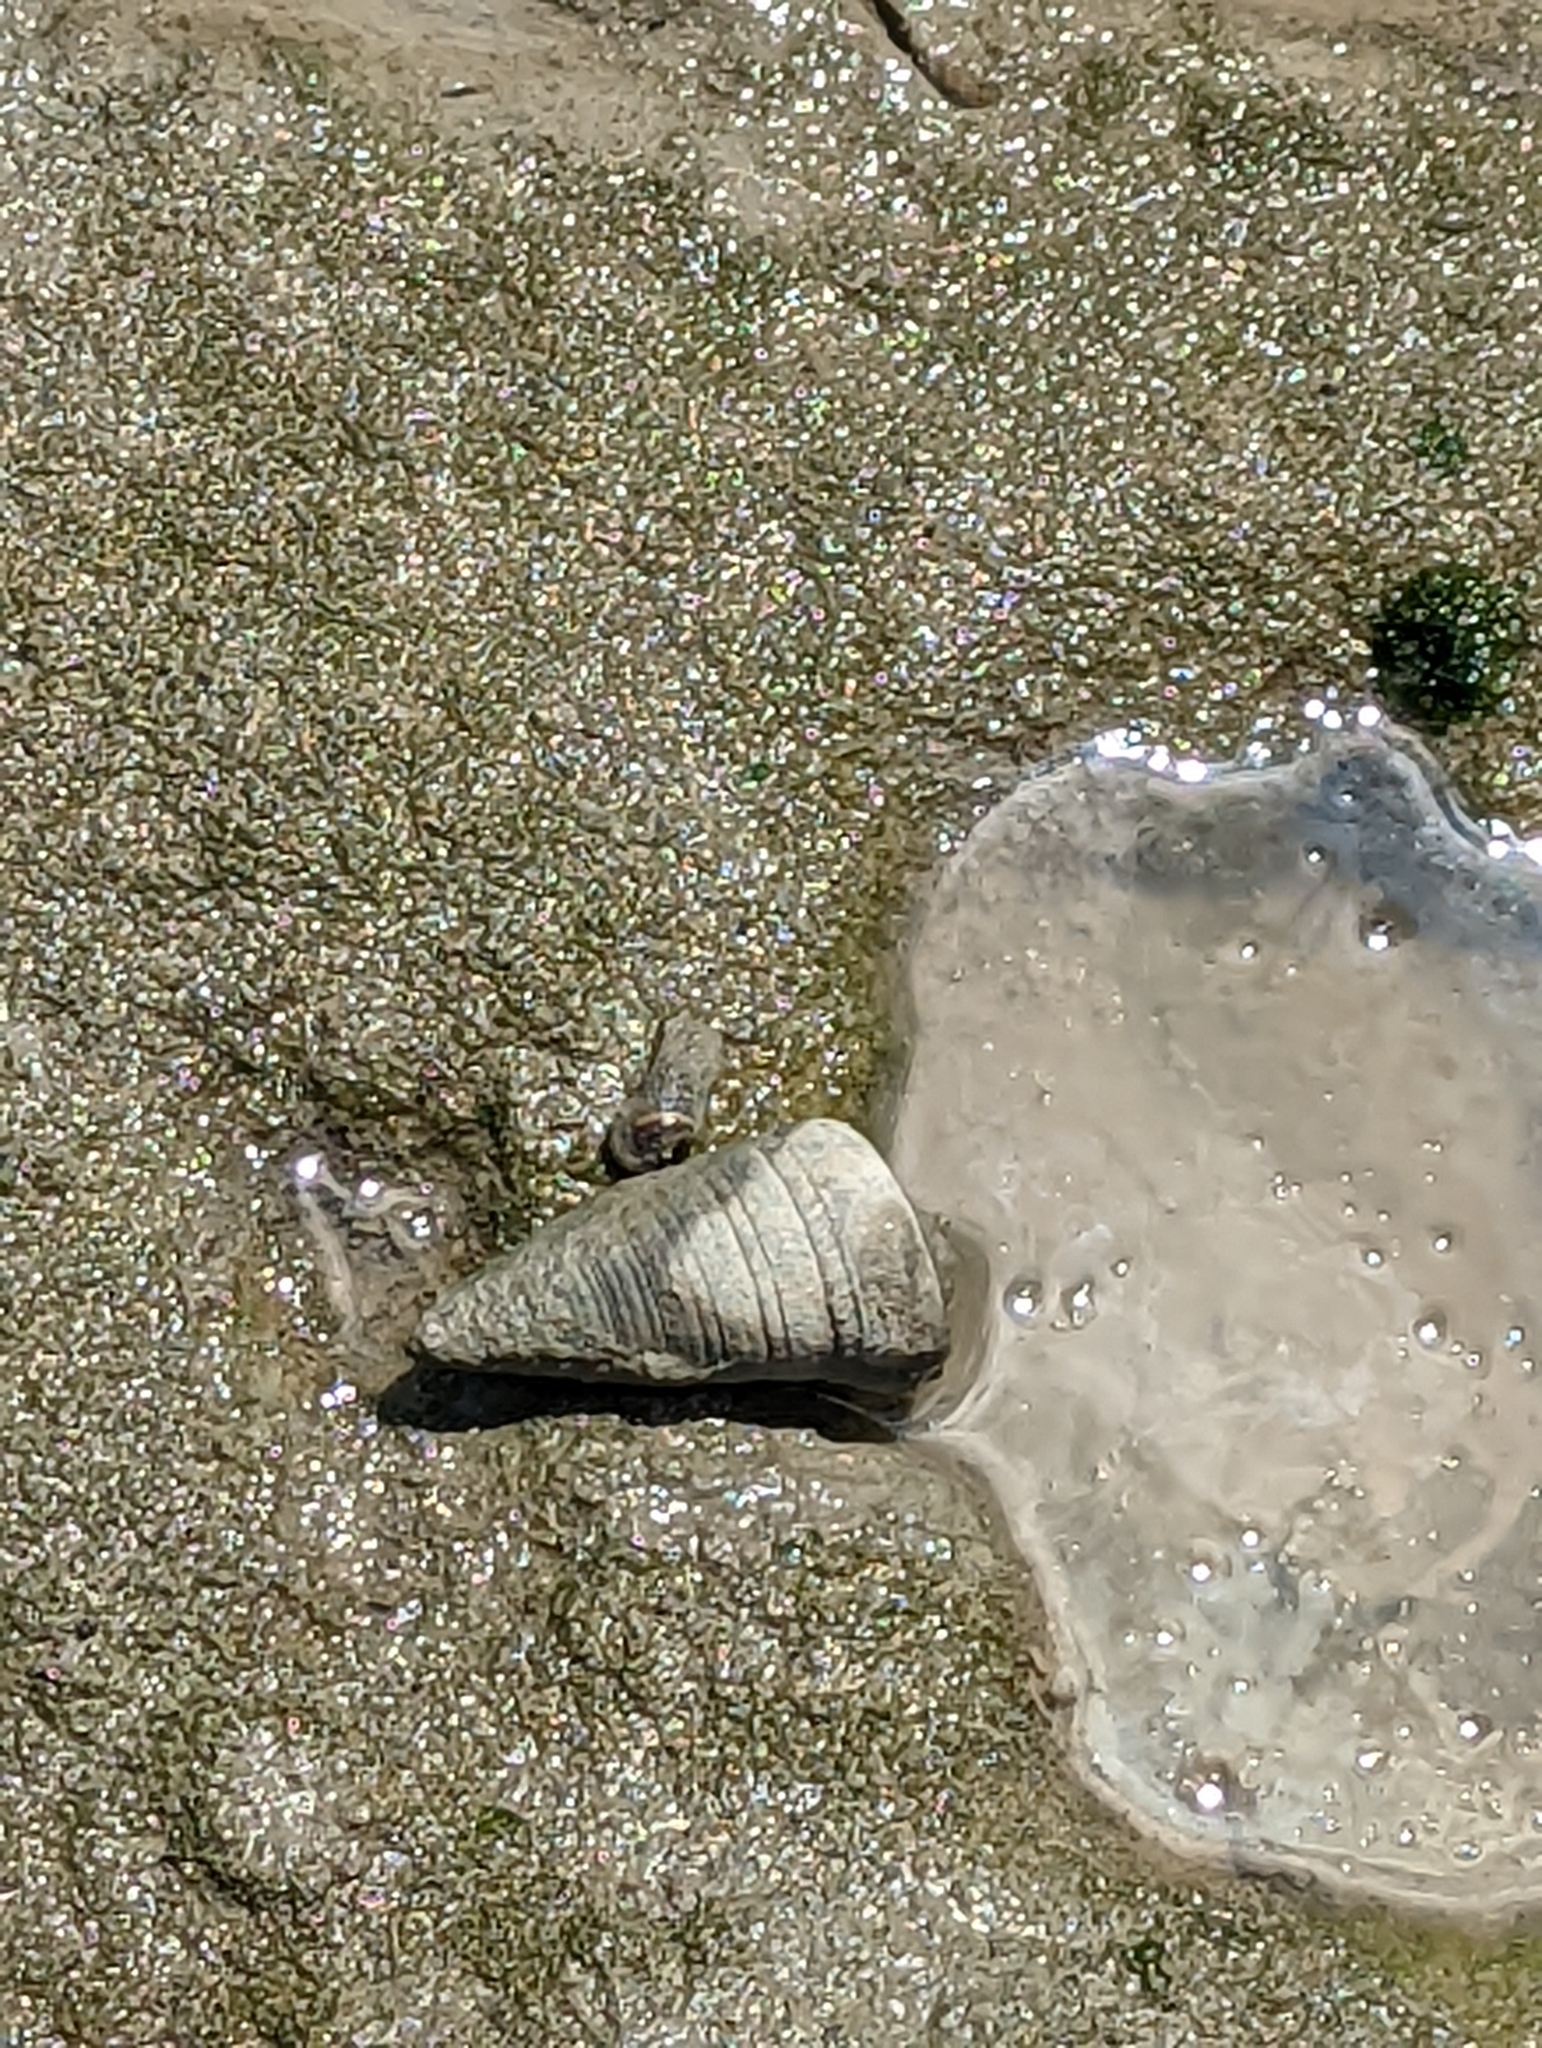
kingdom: Animalia
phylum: Mollusca
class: Gastropoda
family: Potamididae
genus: Telescopium
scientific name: Telescopium telescopium
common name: Telescope creeper
